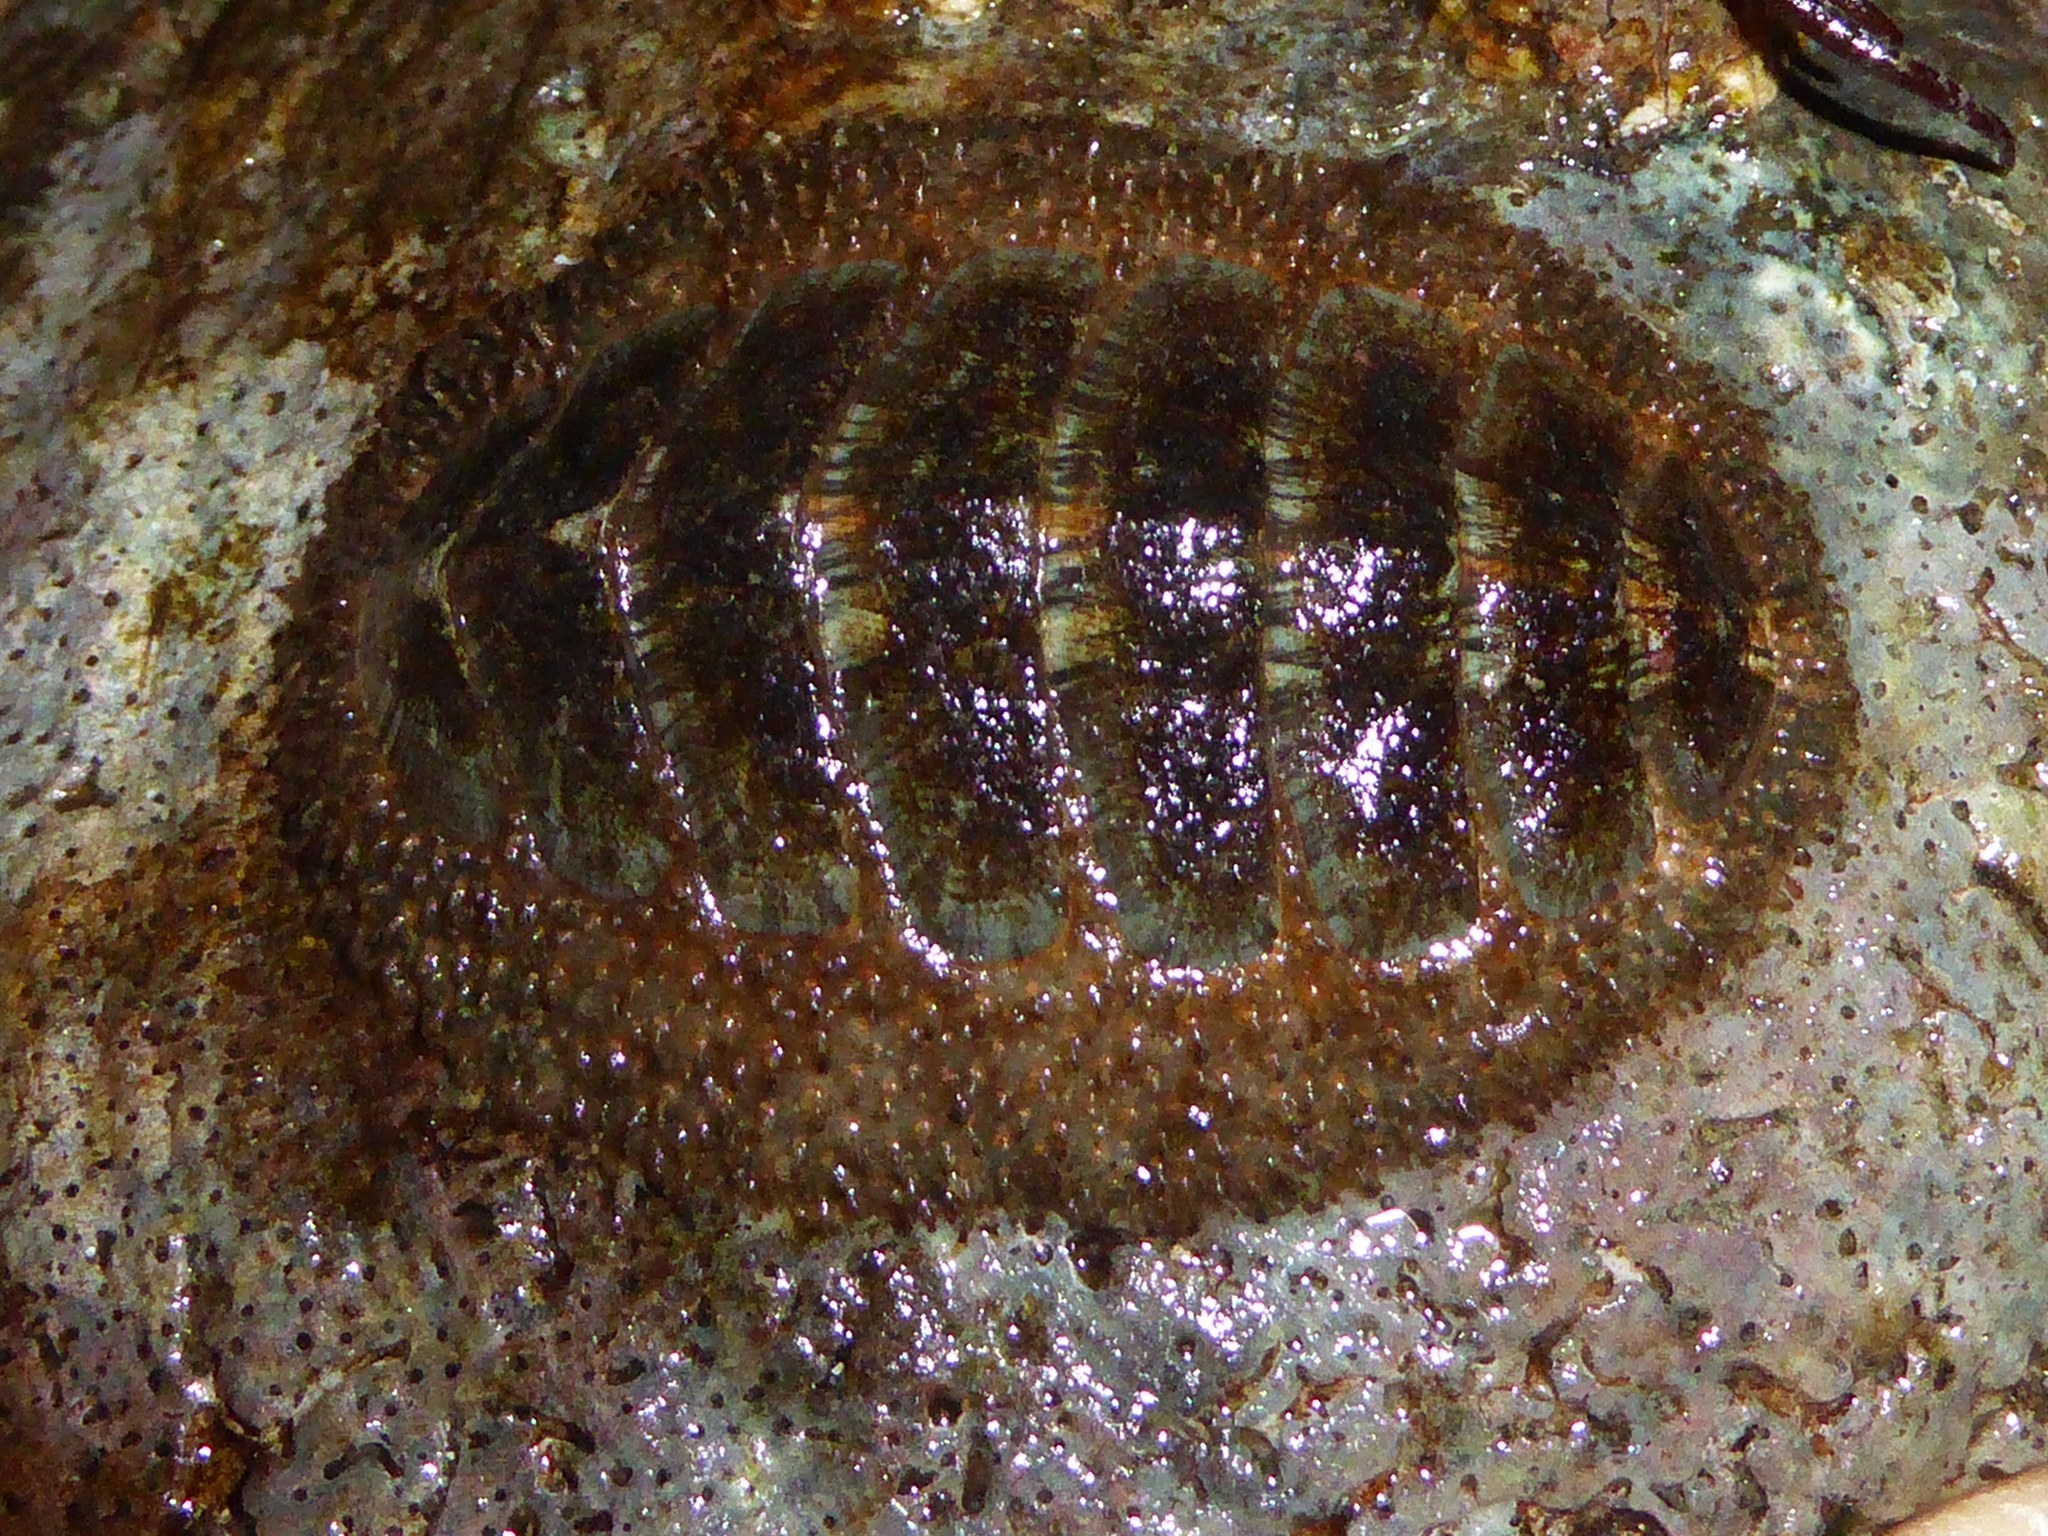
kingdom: Animalia
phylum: Mollusca
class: Polyplacophora
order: Chitonida
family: Mopaliidae
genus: Mopalia
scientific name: Mopalia lignosa
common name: Woody chiton
